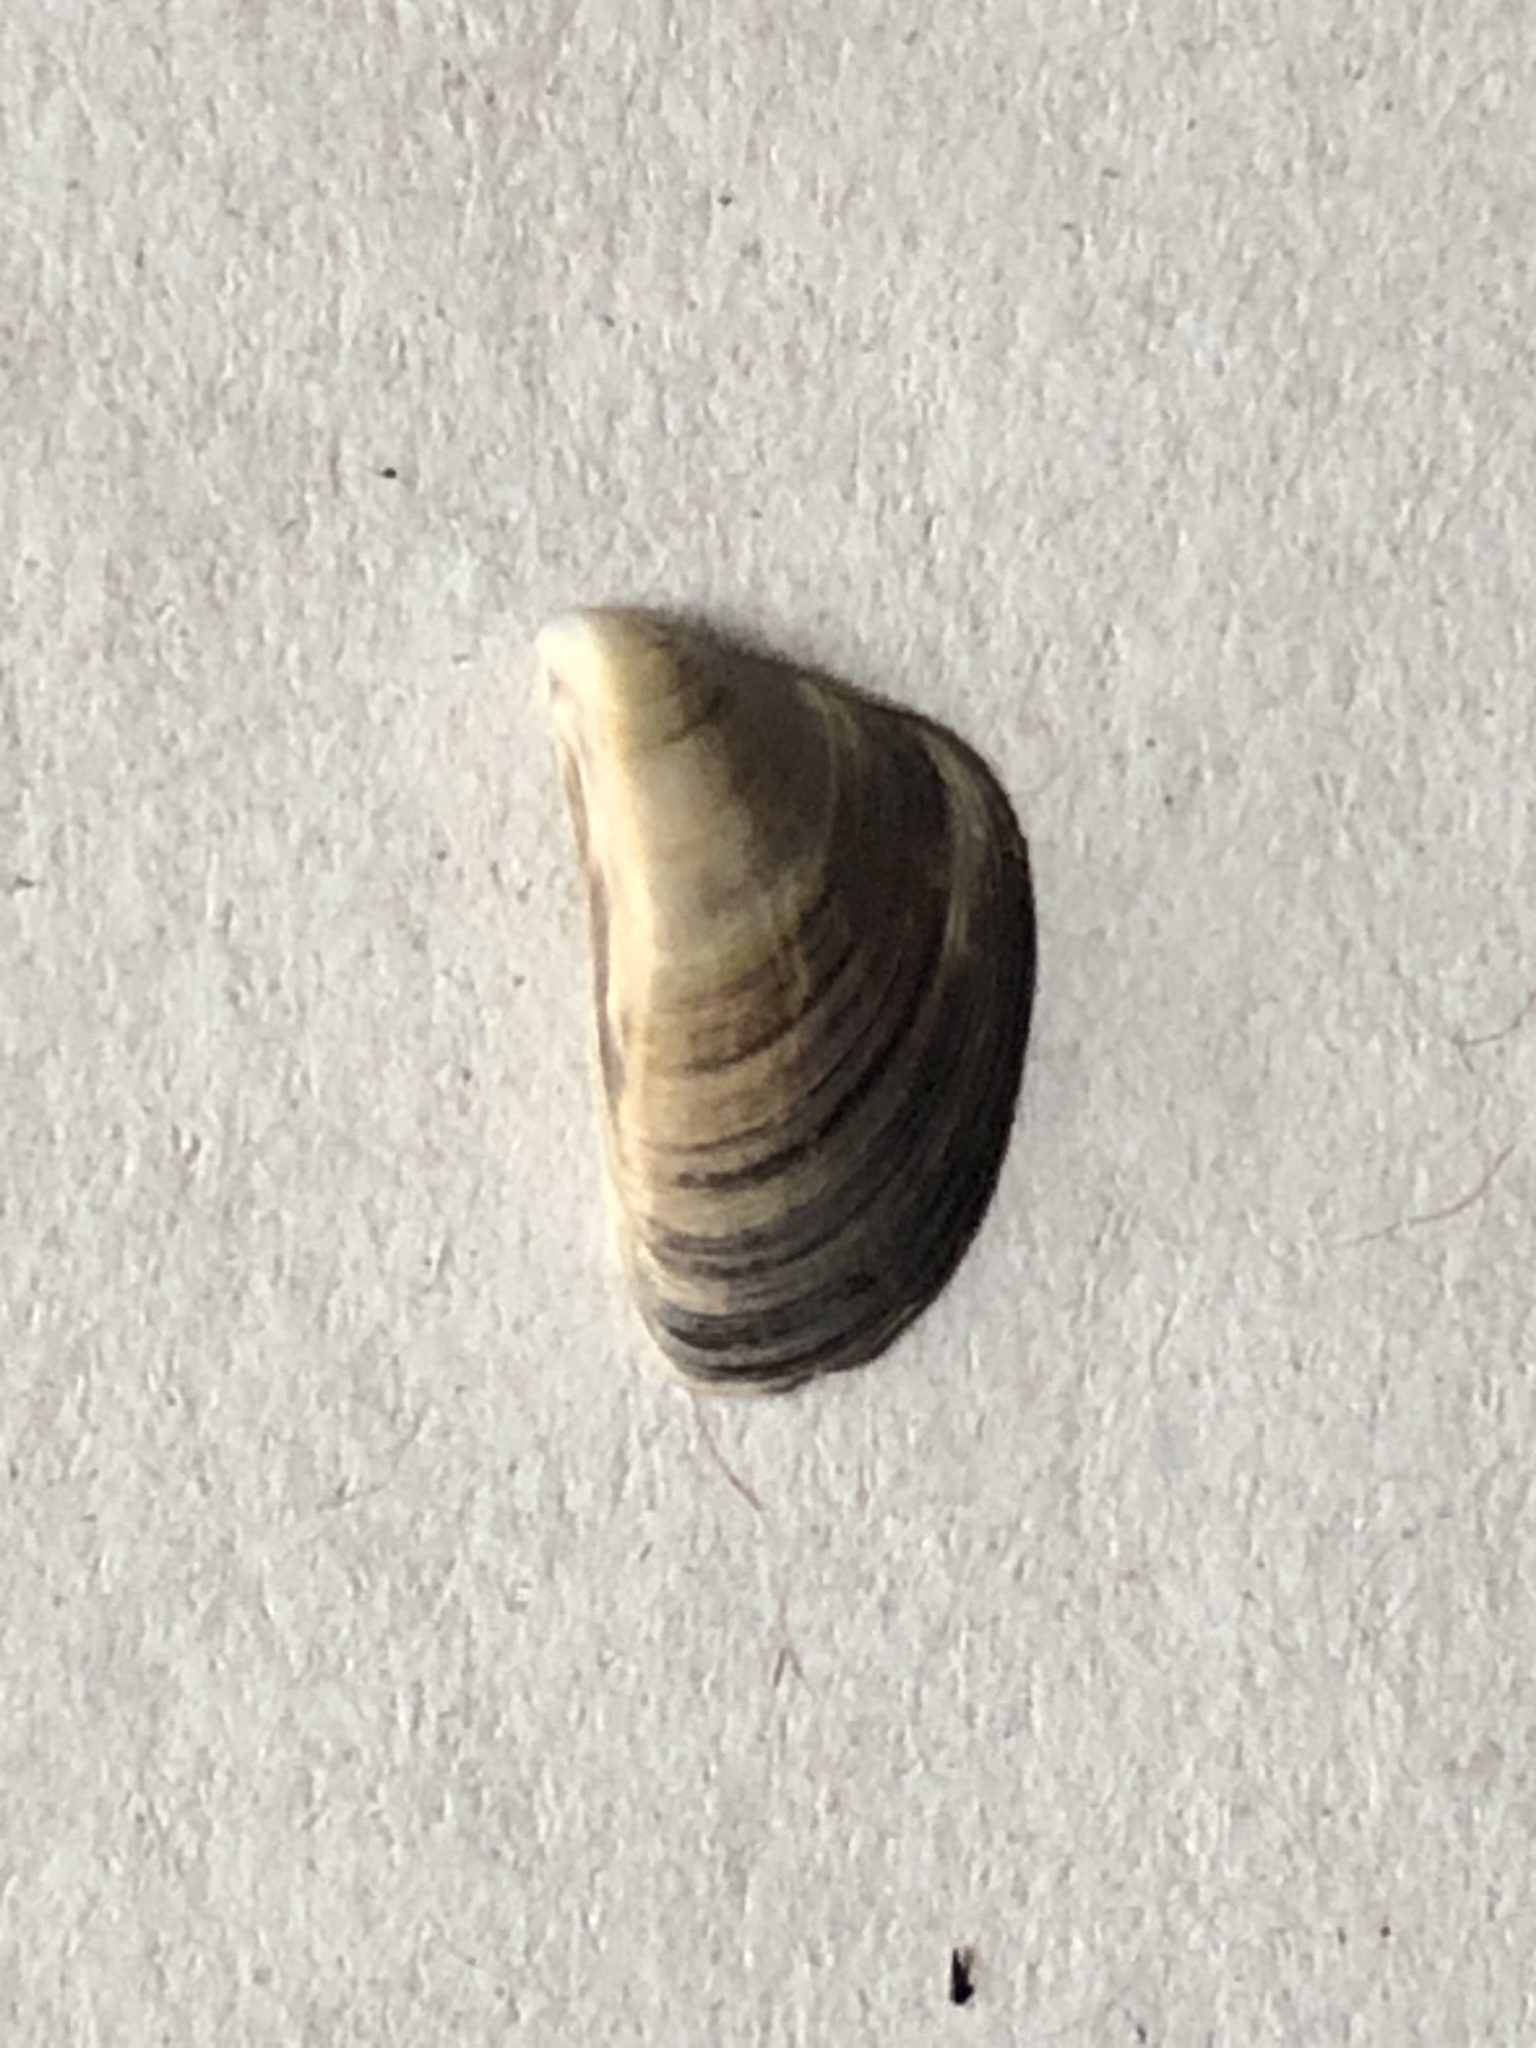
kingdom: Animalia
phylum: Mollusca
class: Bivalvia
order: Myida
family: Dreissenidae
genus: Dreissena
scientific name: Dreissena polymorpha
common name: Zebra mussel
